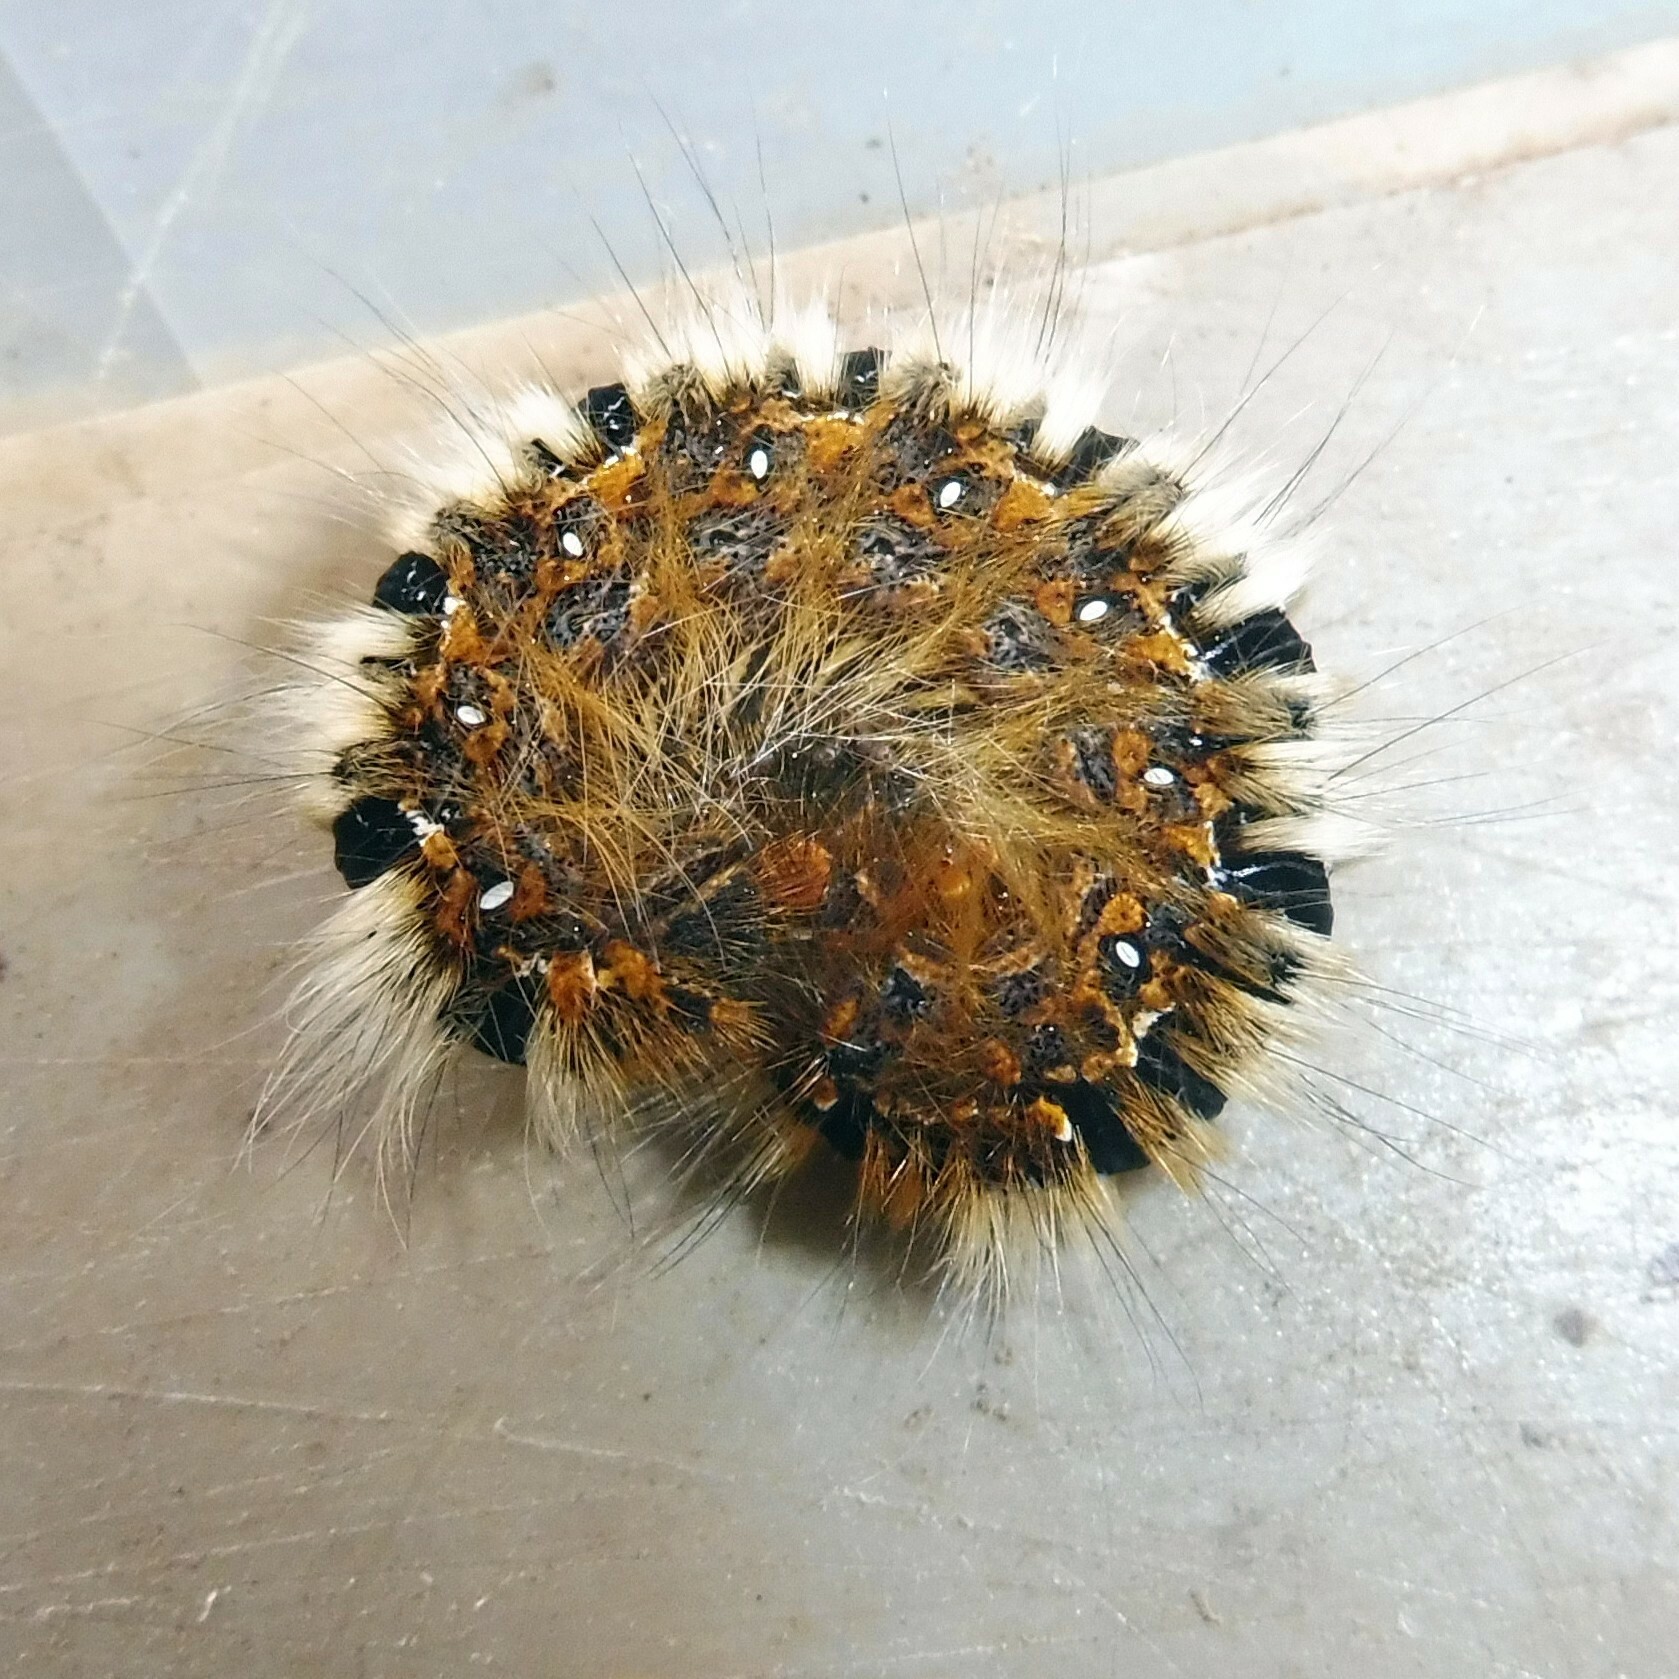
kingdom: Animalia
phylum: Arthropoda
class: Insecta
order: Lepidoptera
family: Lasiocampidae
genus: Lasiocampa
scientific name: Lasiocampa quercus
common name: Oak eggar
